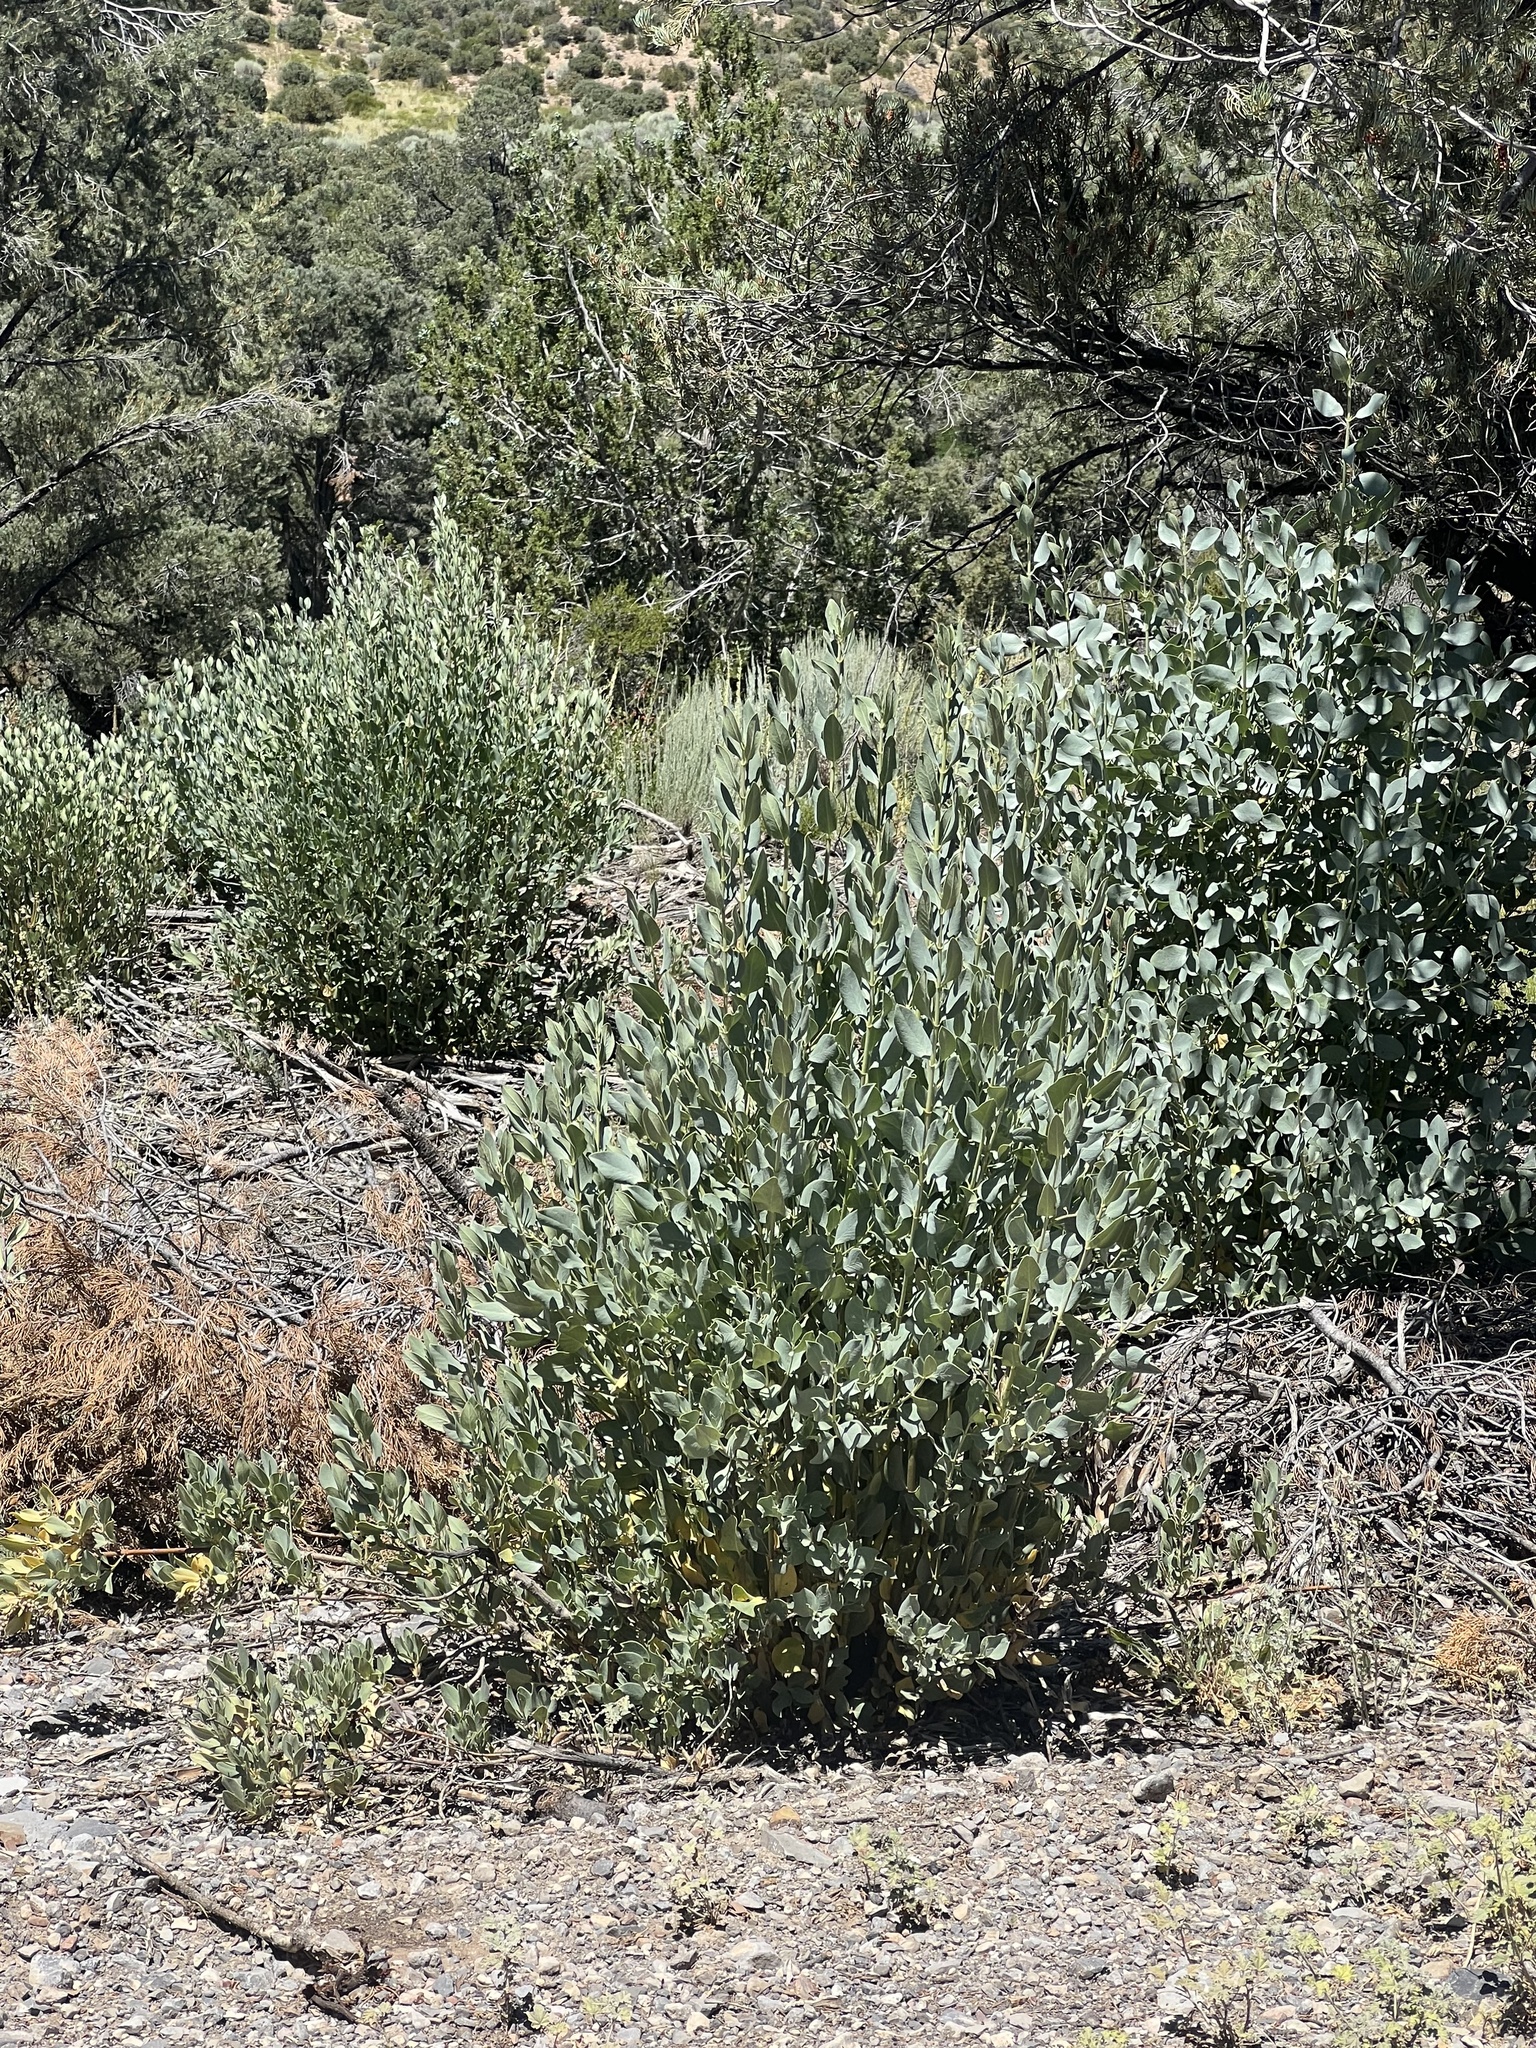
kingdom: Plantae
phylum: Tracheophyta
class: Magnoliopsida
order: Garryales
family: Garryaceae
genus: Garrya
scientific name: Garrya flavescens
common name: Ashy silk-tassel
